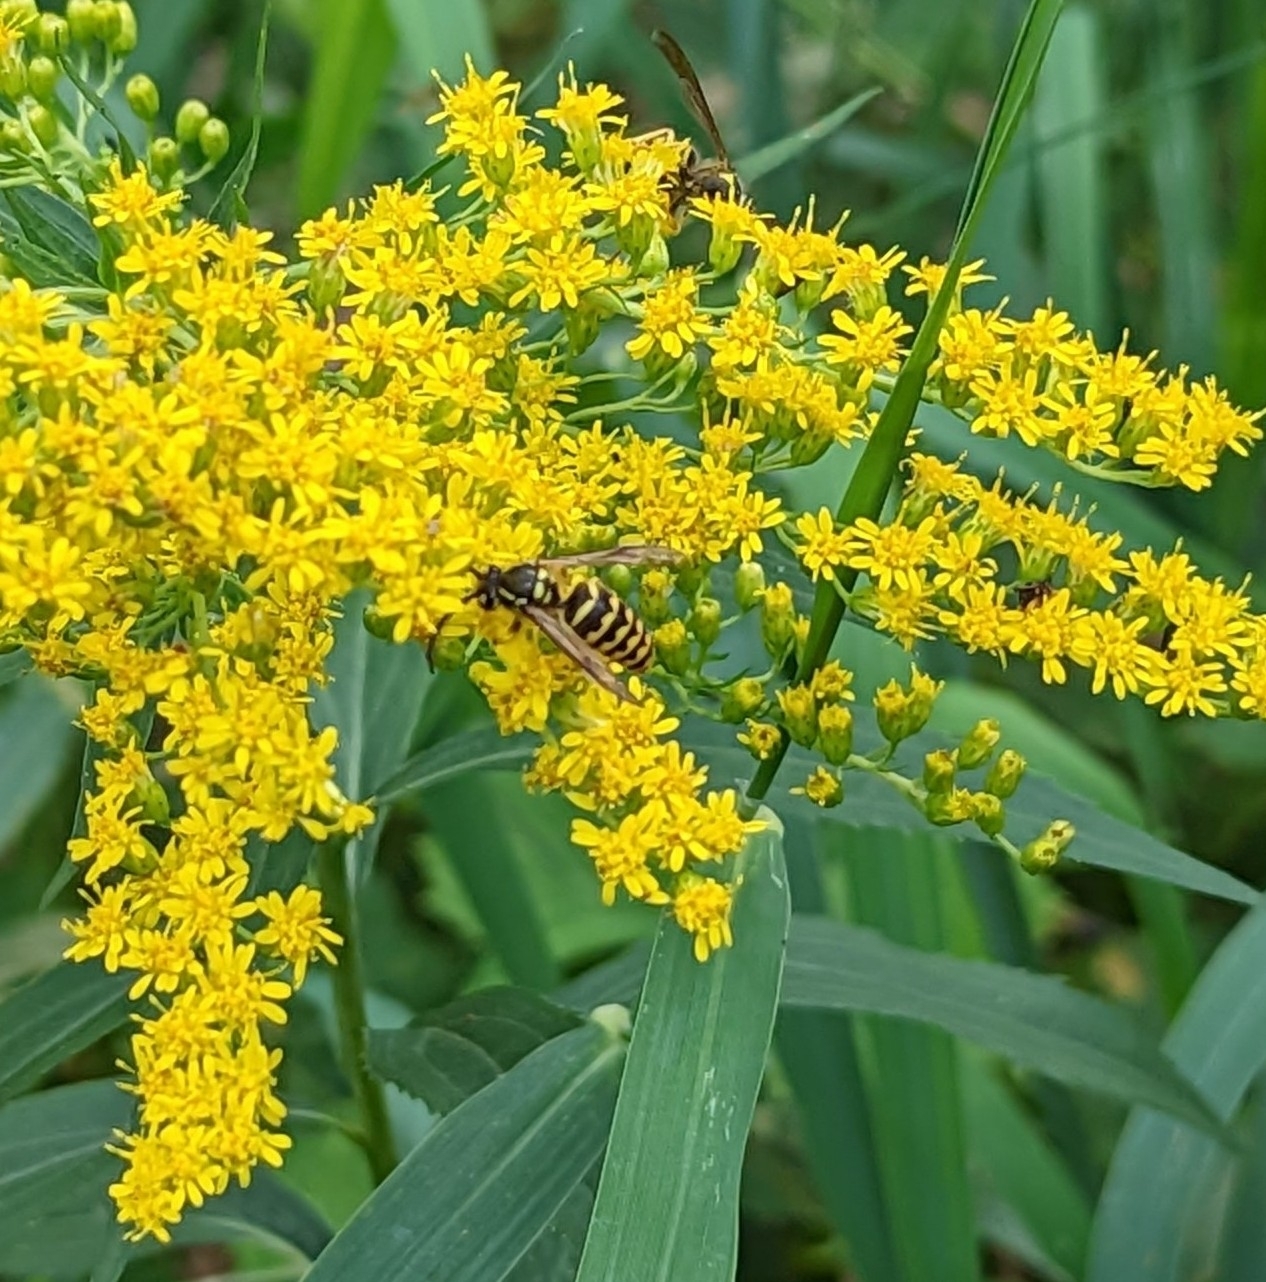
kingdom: Animalia
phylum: Arthropoda
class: Insecta
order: Hymenoptera
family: Vespidae
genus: Dolichovespula
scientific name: Dolichovespula arenaria
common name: Aerial yellowjacket
